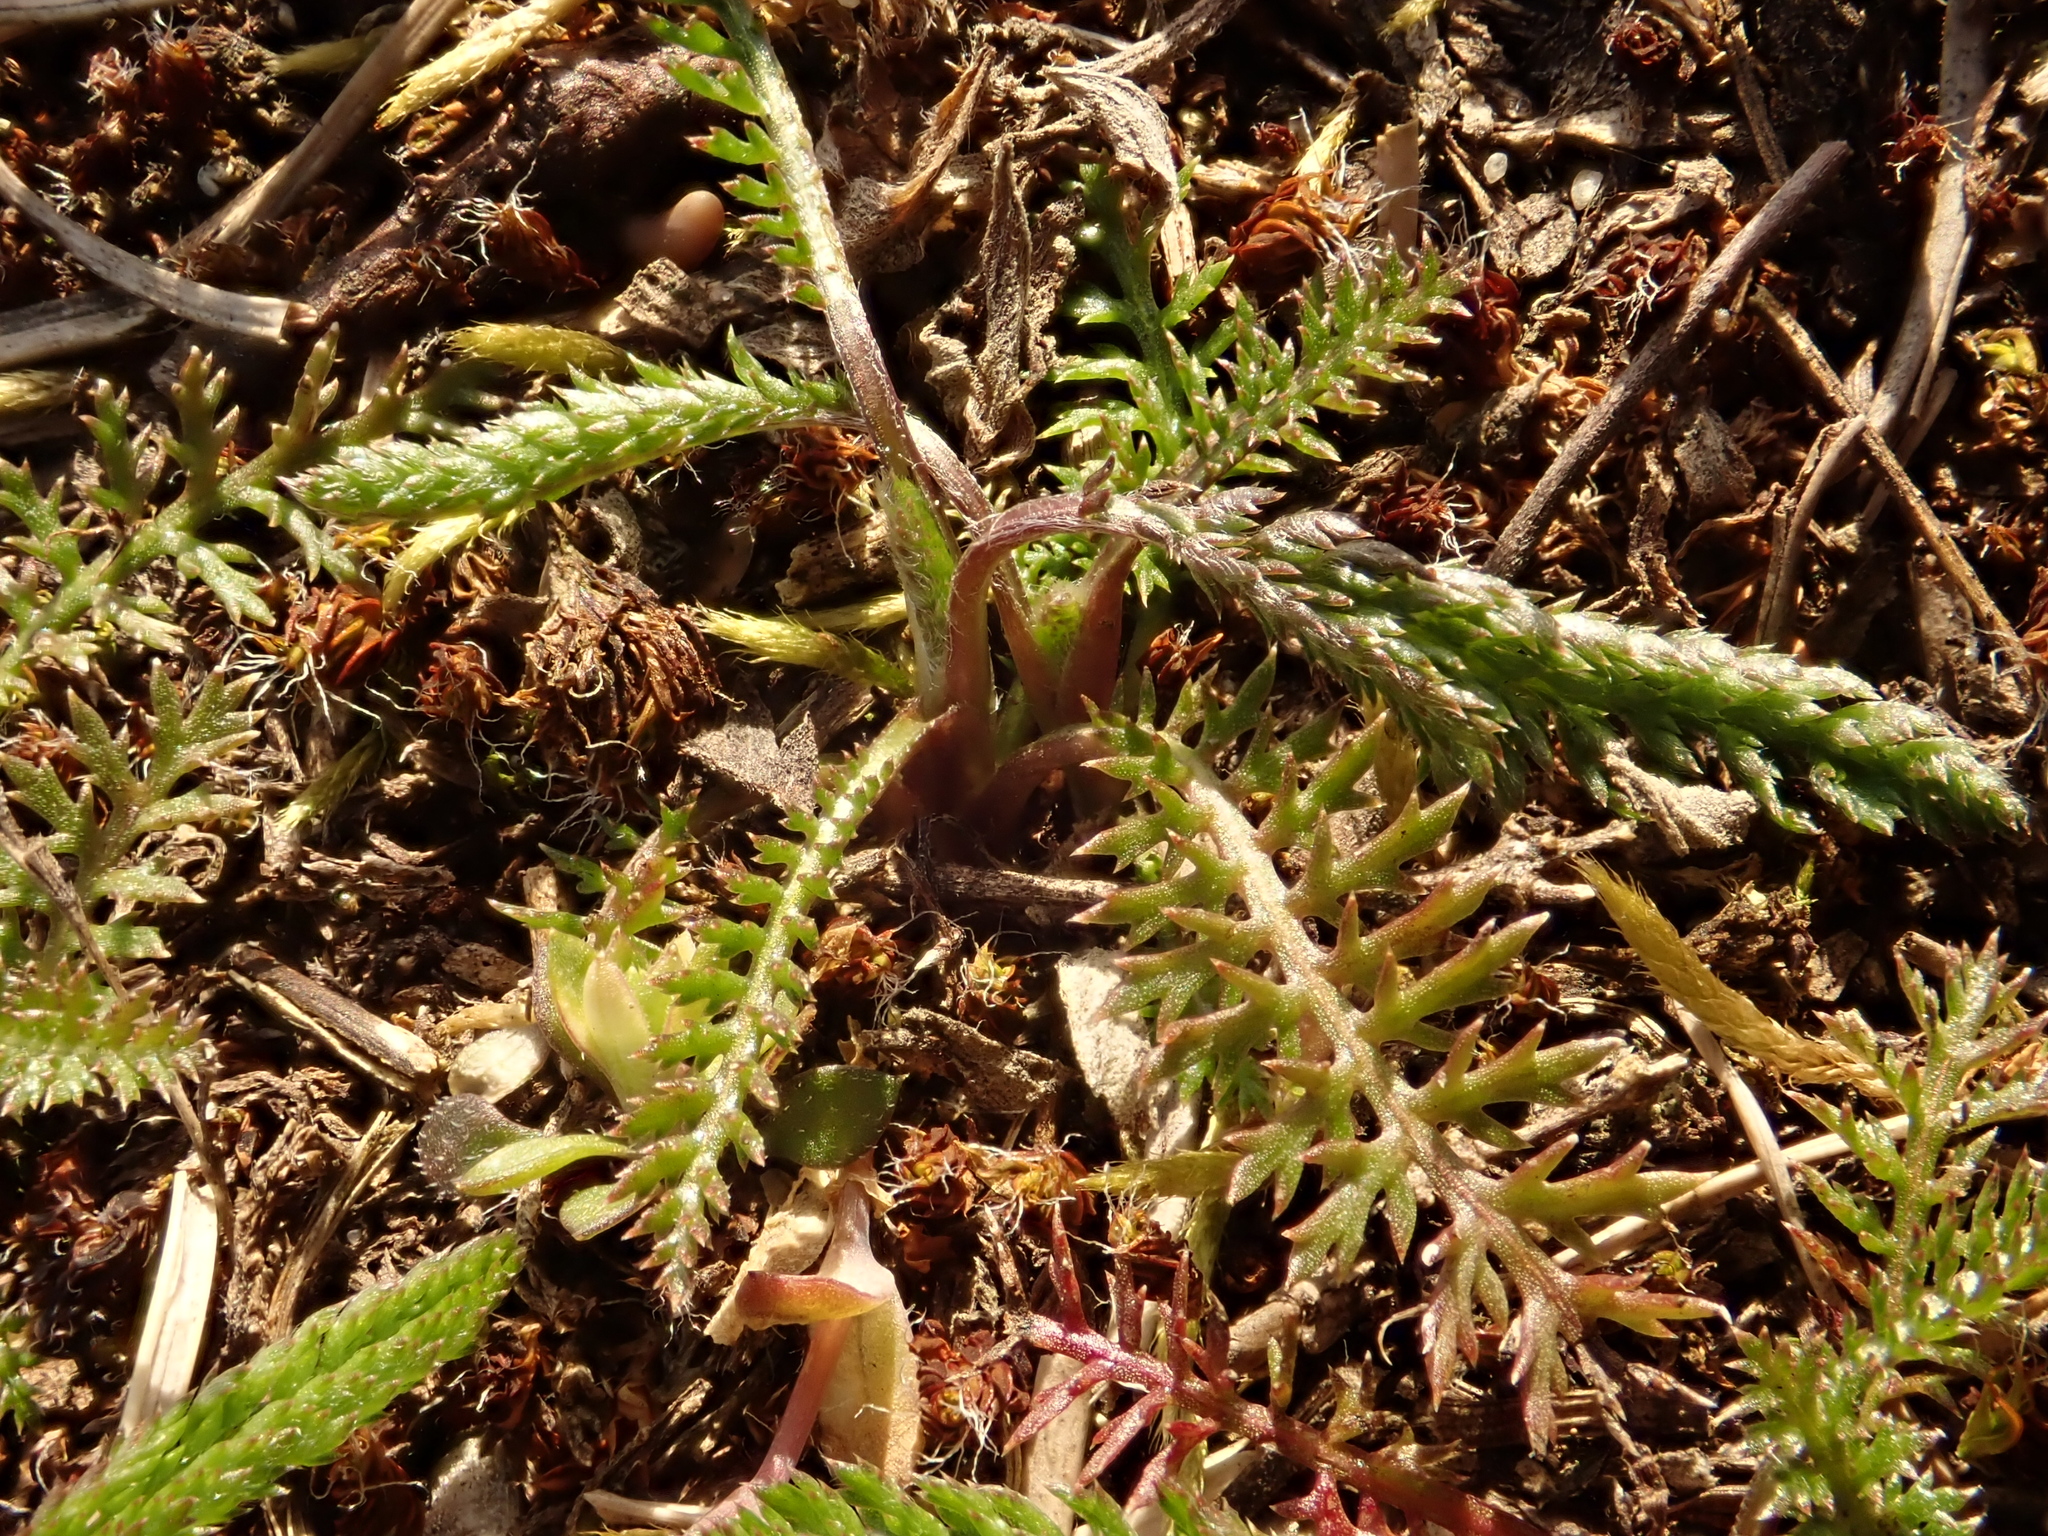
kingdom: Plantae
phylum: Tracheophyta
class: Magnoliopsida
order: Asterales
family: Asteraceae
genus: Achillea
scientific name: Achillea millefolium
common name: Yarrow
